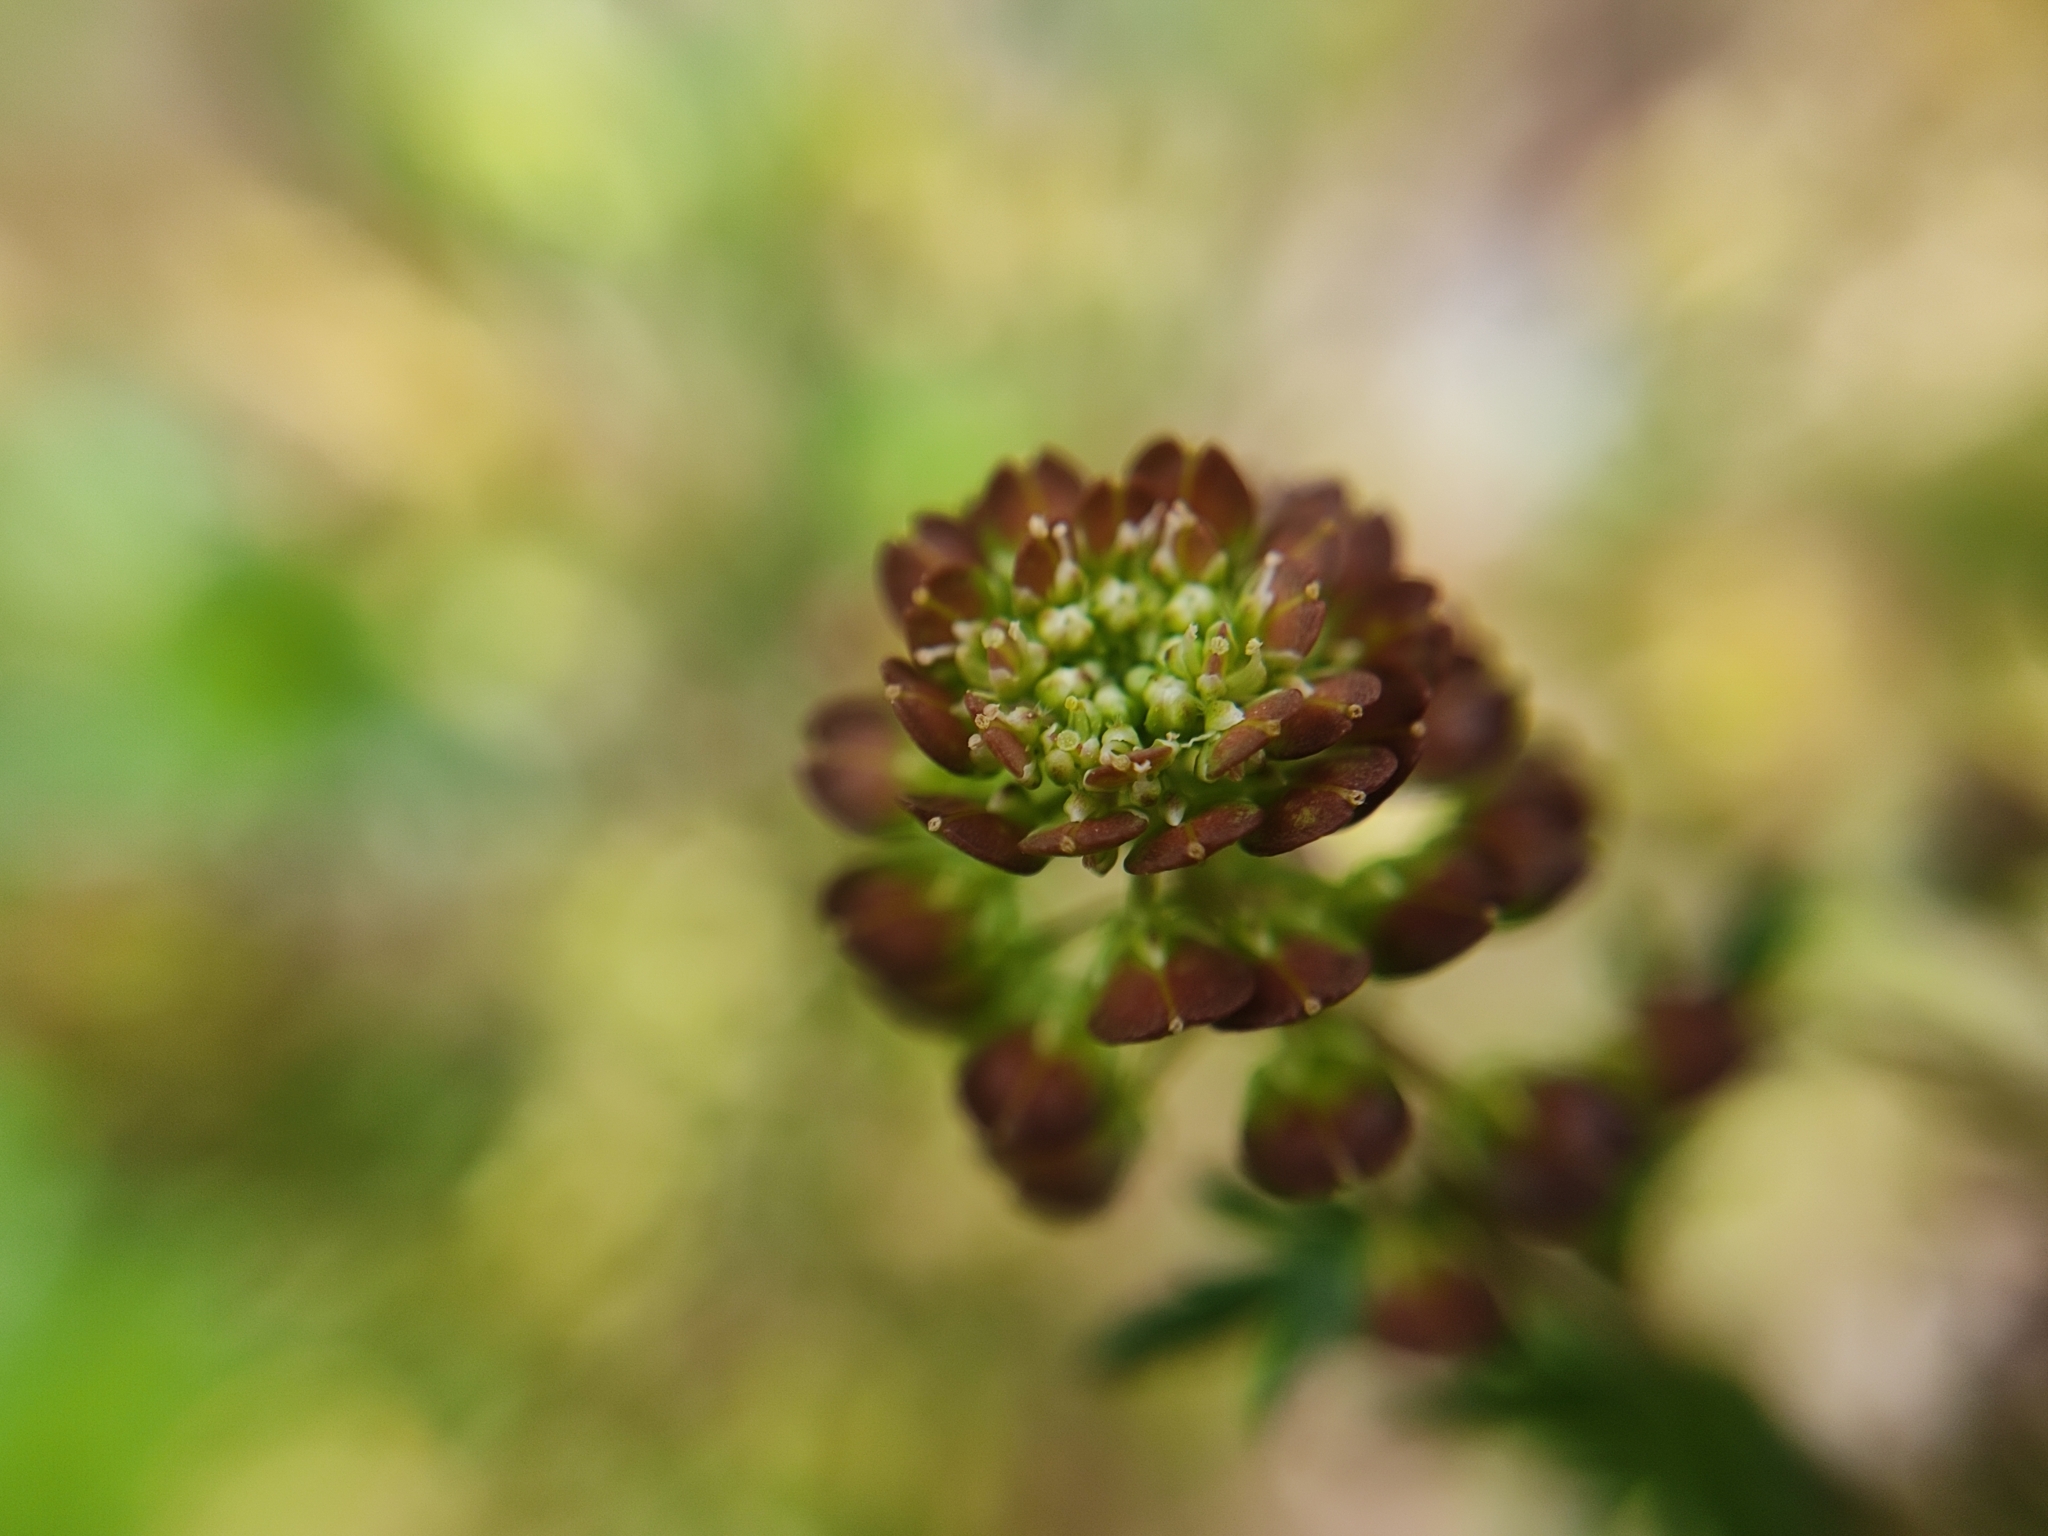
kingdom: Plantae
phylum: Tracheophyta
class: Magnoliopsida
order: Brassicales
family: Brassicaceae
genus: Lepidium
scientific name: Lepidium bipinnatifidum
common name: Wayside pepperwort
